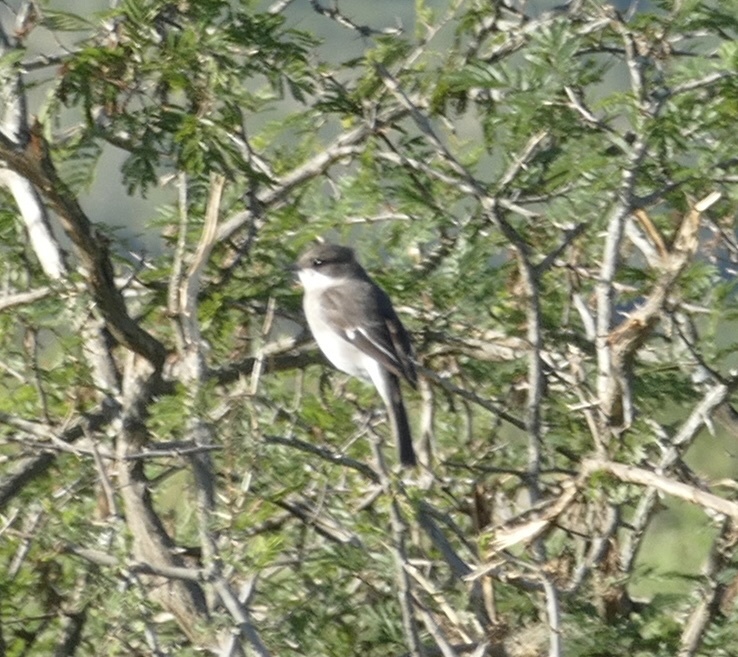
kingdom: Animalia
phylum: Chordata
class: Aves
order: Passeriformes
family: Muscicapidae
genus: Sigelus
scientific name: Sigelus silens
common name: Fiscal flycatcher
